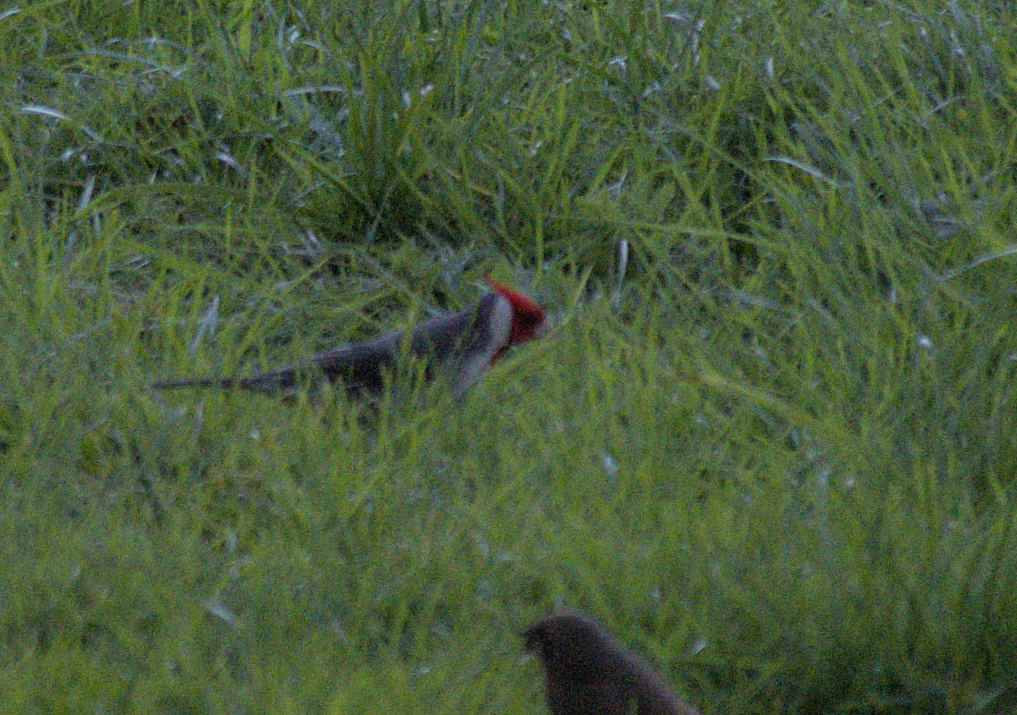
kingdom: Animalia
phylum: Chordata
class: Aves
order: Passeriformes
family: Thraupidae
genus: Paroaria
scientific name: Paroaria coronata
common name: Red-crested cardinal
